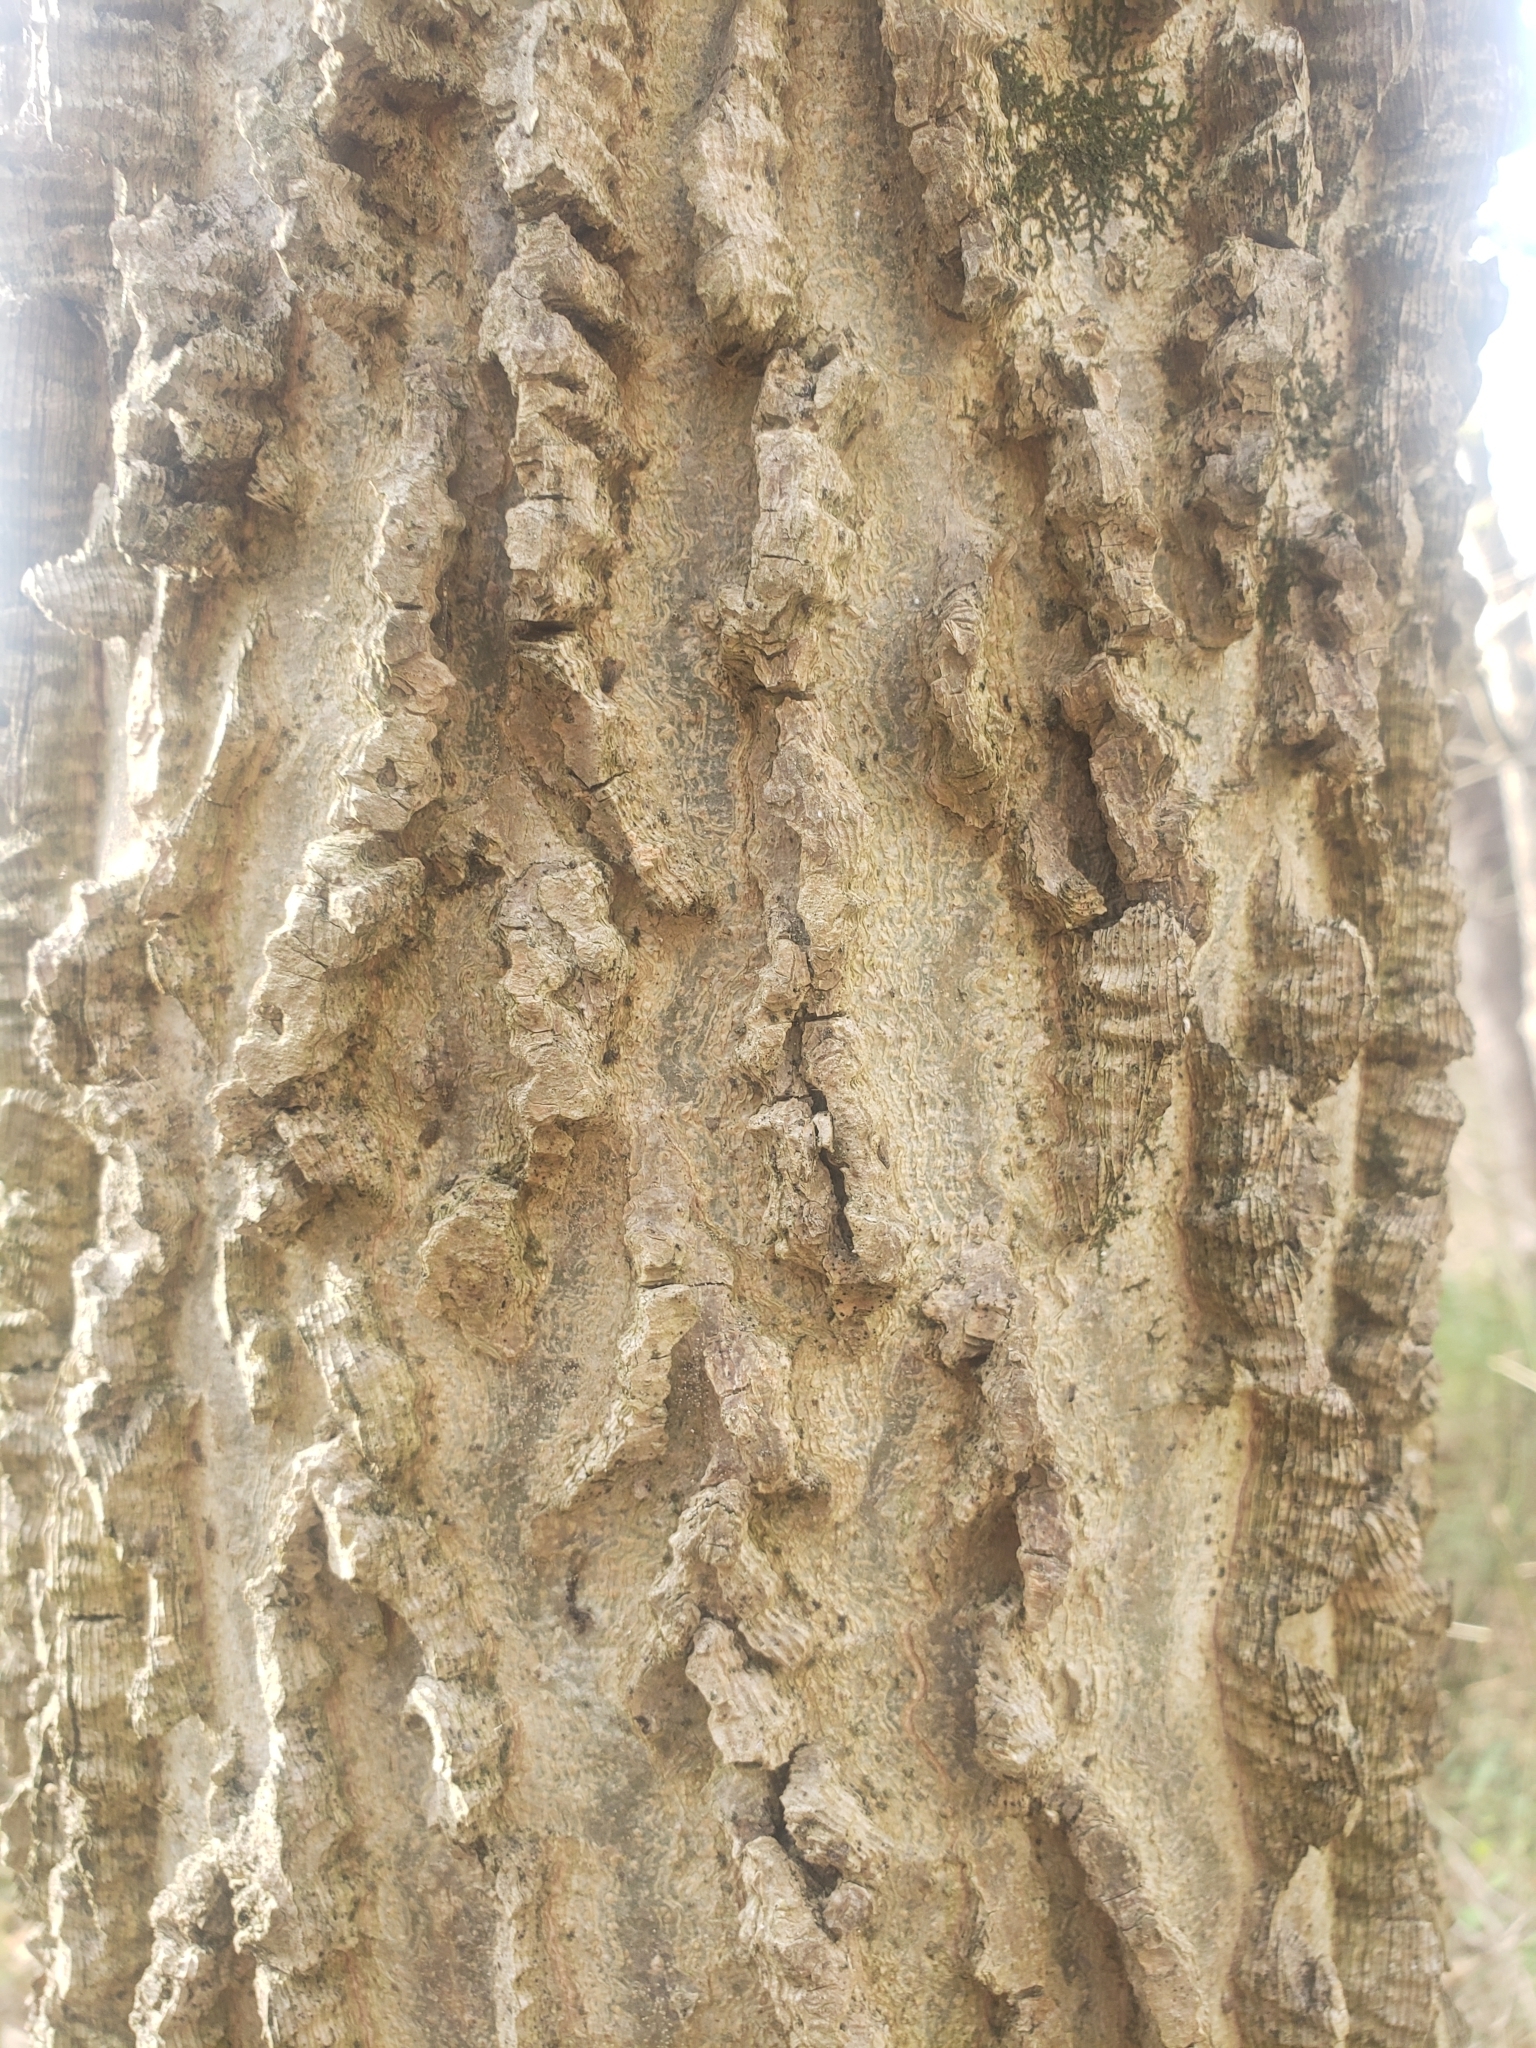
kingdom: Plantae
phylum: Tracheophyta
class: Magnoliopsida
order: Rosales
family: Cannabaceae
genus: Celtis
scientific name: Celtis occidentalis
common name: Common hackberry
